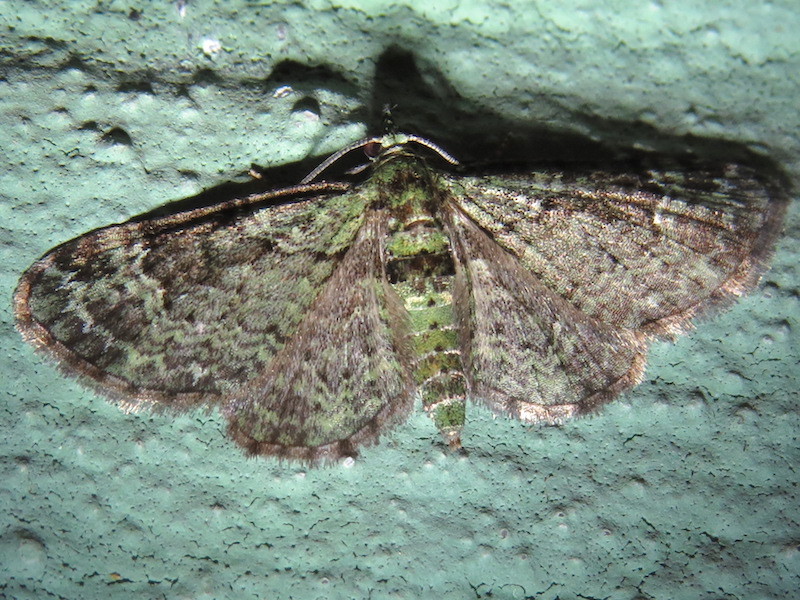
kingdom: Animalia
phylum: Arthropoda
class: Insecta
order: Lepidoptera
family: Geometridae
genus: Pasiphila
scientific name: Pasiphila rectangulata
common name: Green pug
